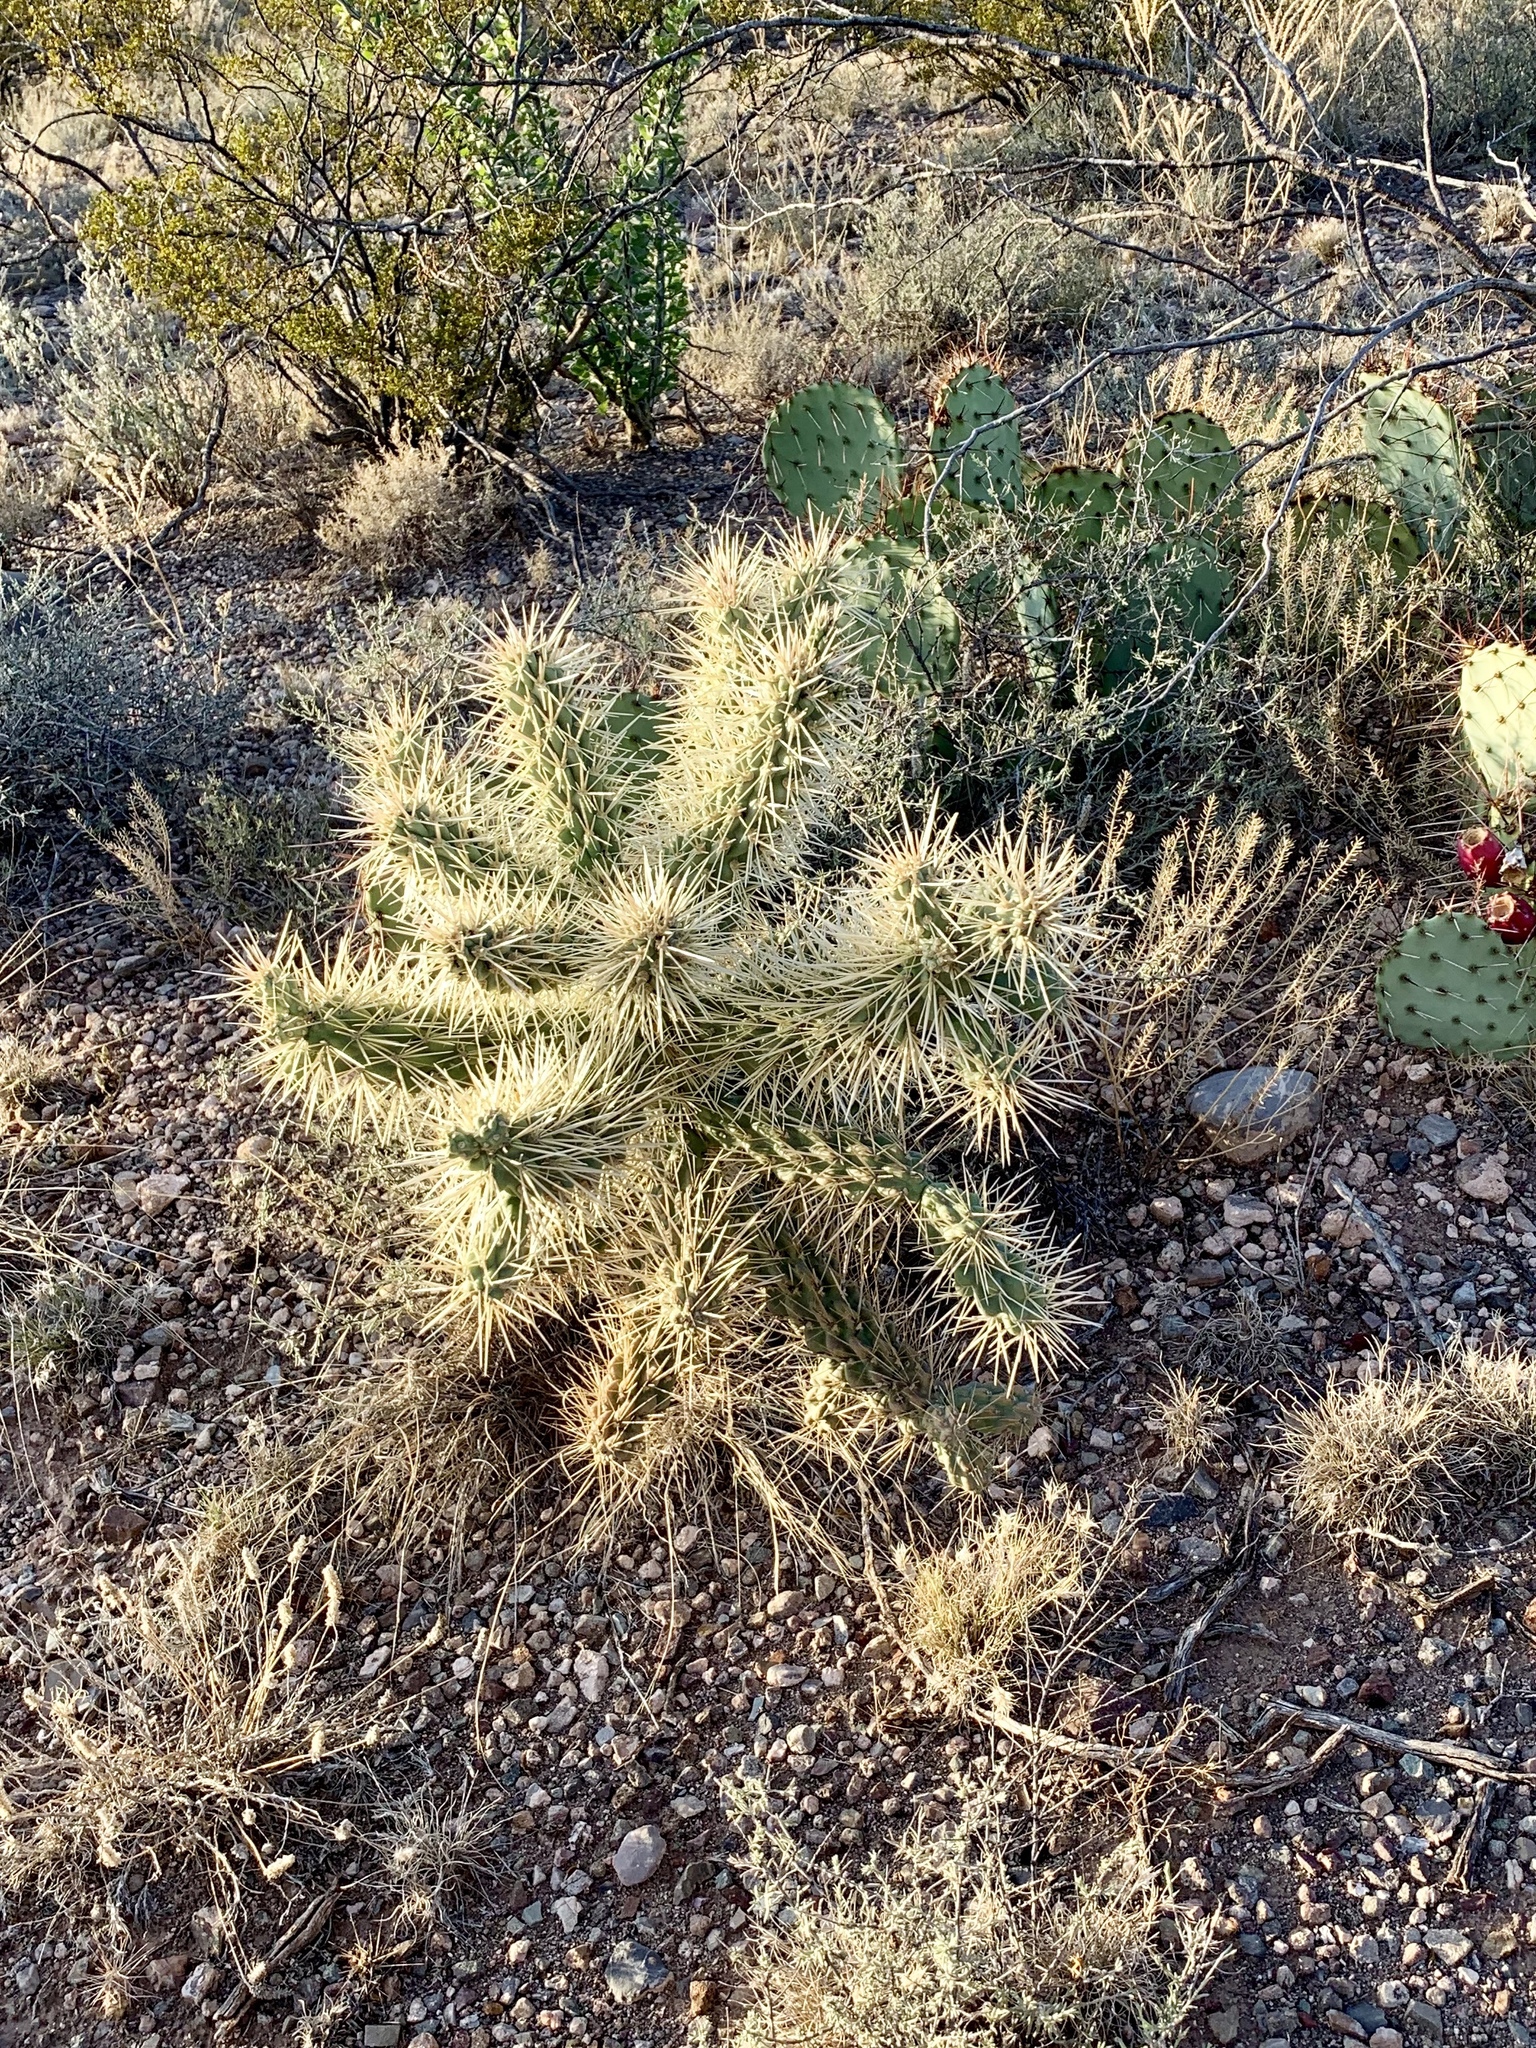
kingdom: Plantae
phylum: Tracheophyta
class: Magnoliopsida
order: Caryophyllales
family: Cactaceae
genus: Cylindropuntia
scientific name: Cylindropuntia fulgida
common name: Jumping cholla
